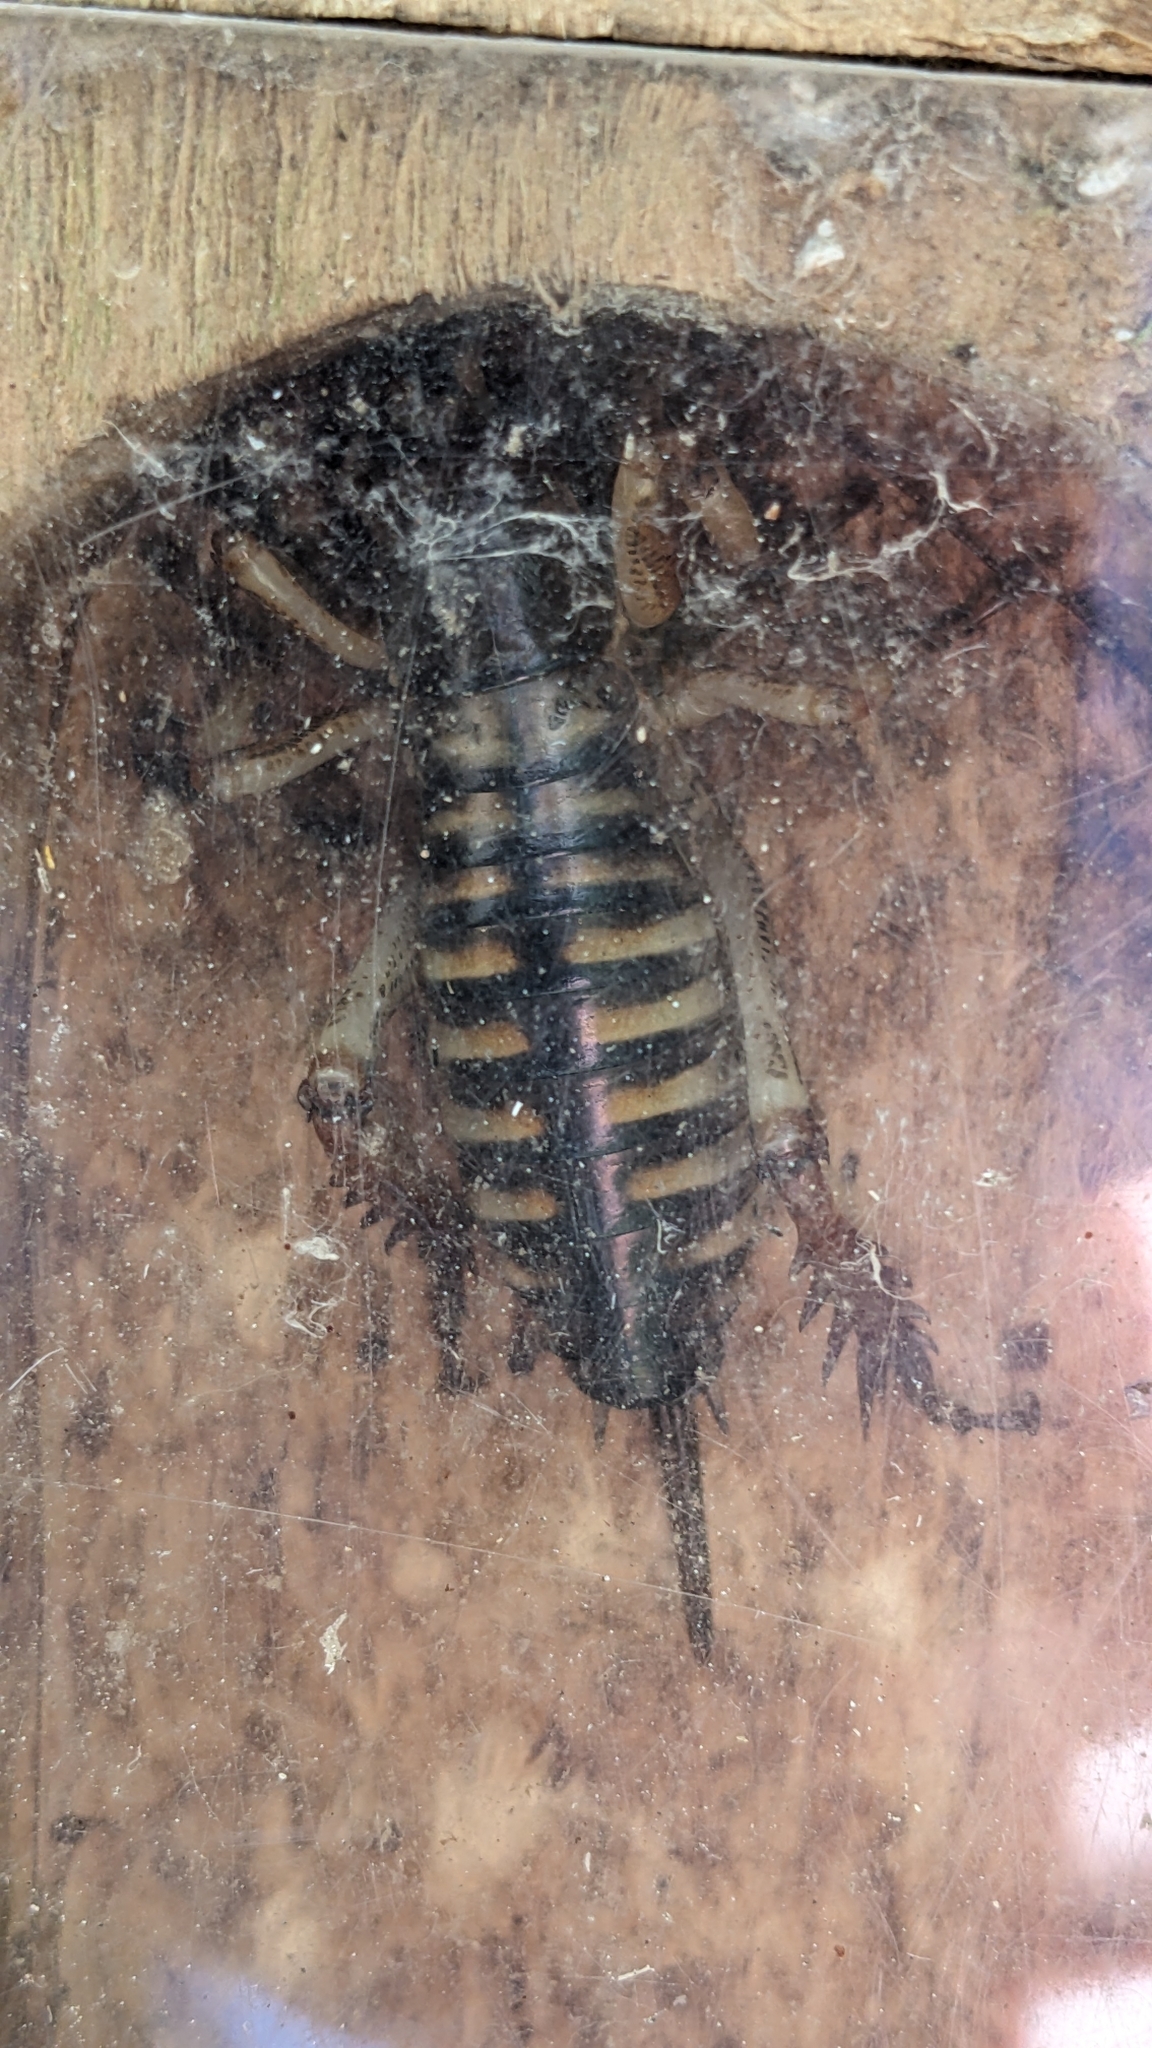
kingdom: Animalia
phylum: Arthropoda
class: Insecta
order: Orthoptera
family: Anostostomatidae
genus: Hemideina
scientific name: Hemideina crassidens
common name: Wellington tree weta
